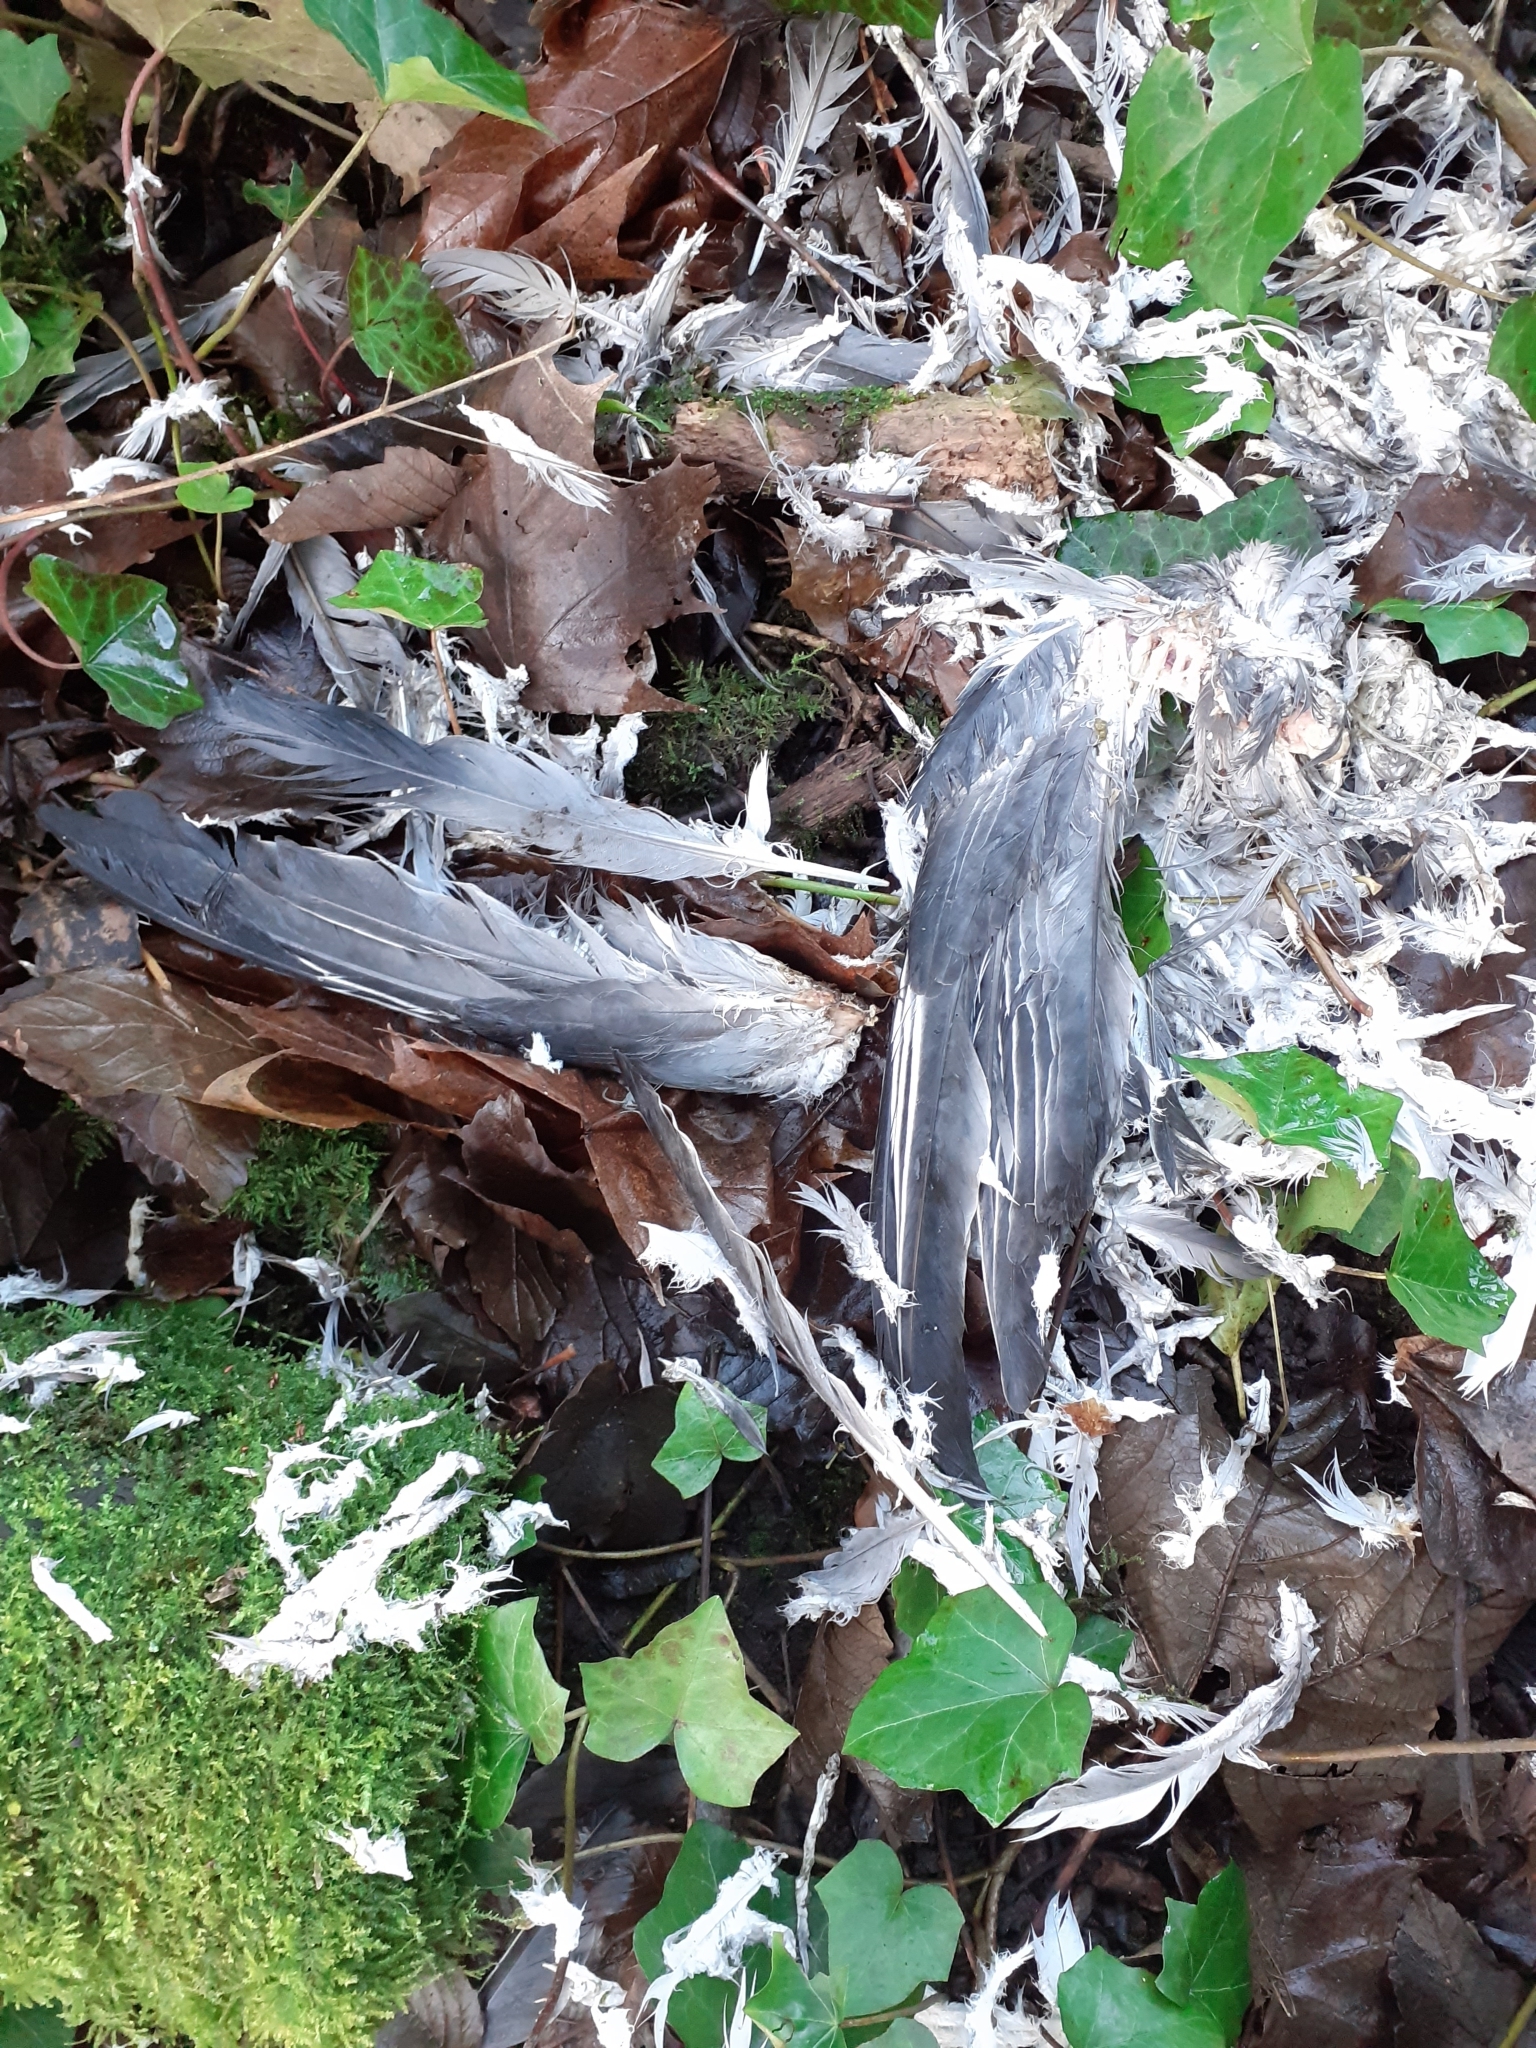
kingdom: Animalia
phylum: Chordata
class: Aves
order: Columbiformes
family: Columbidae
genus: Columba
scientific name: Columba palumbus
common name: Common wood pigeon
